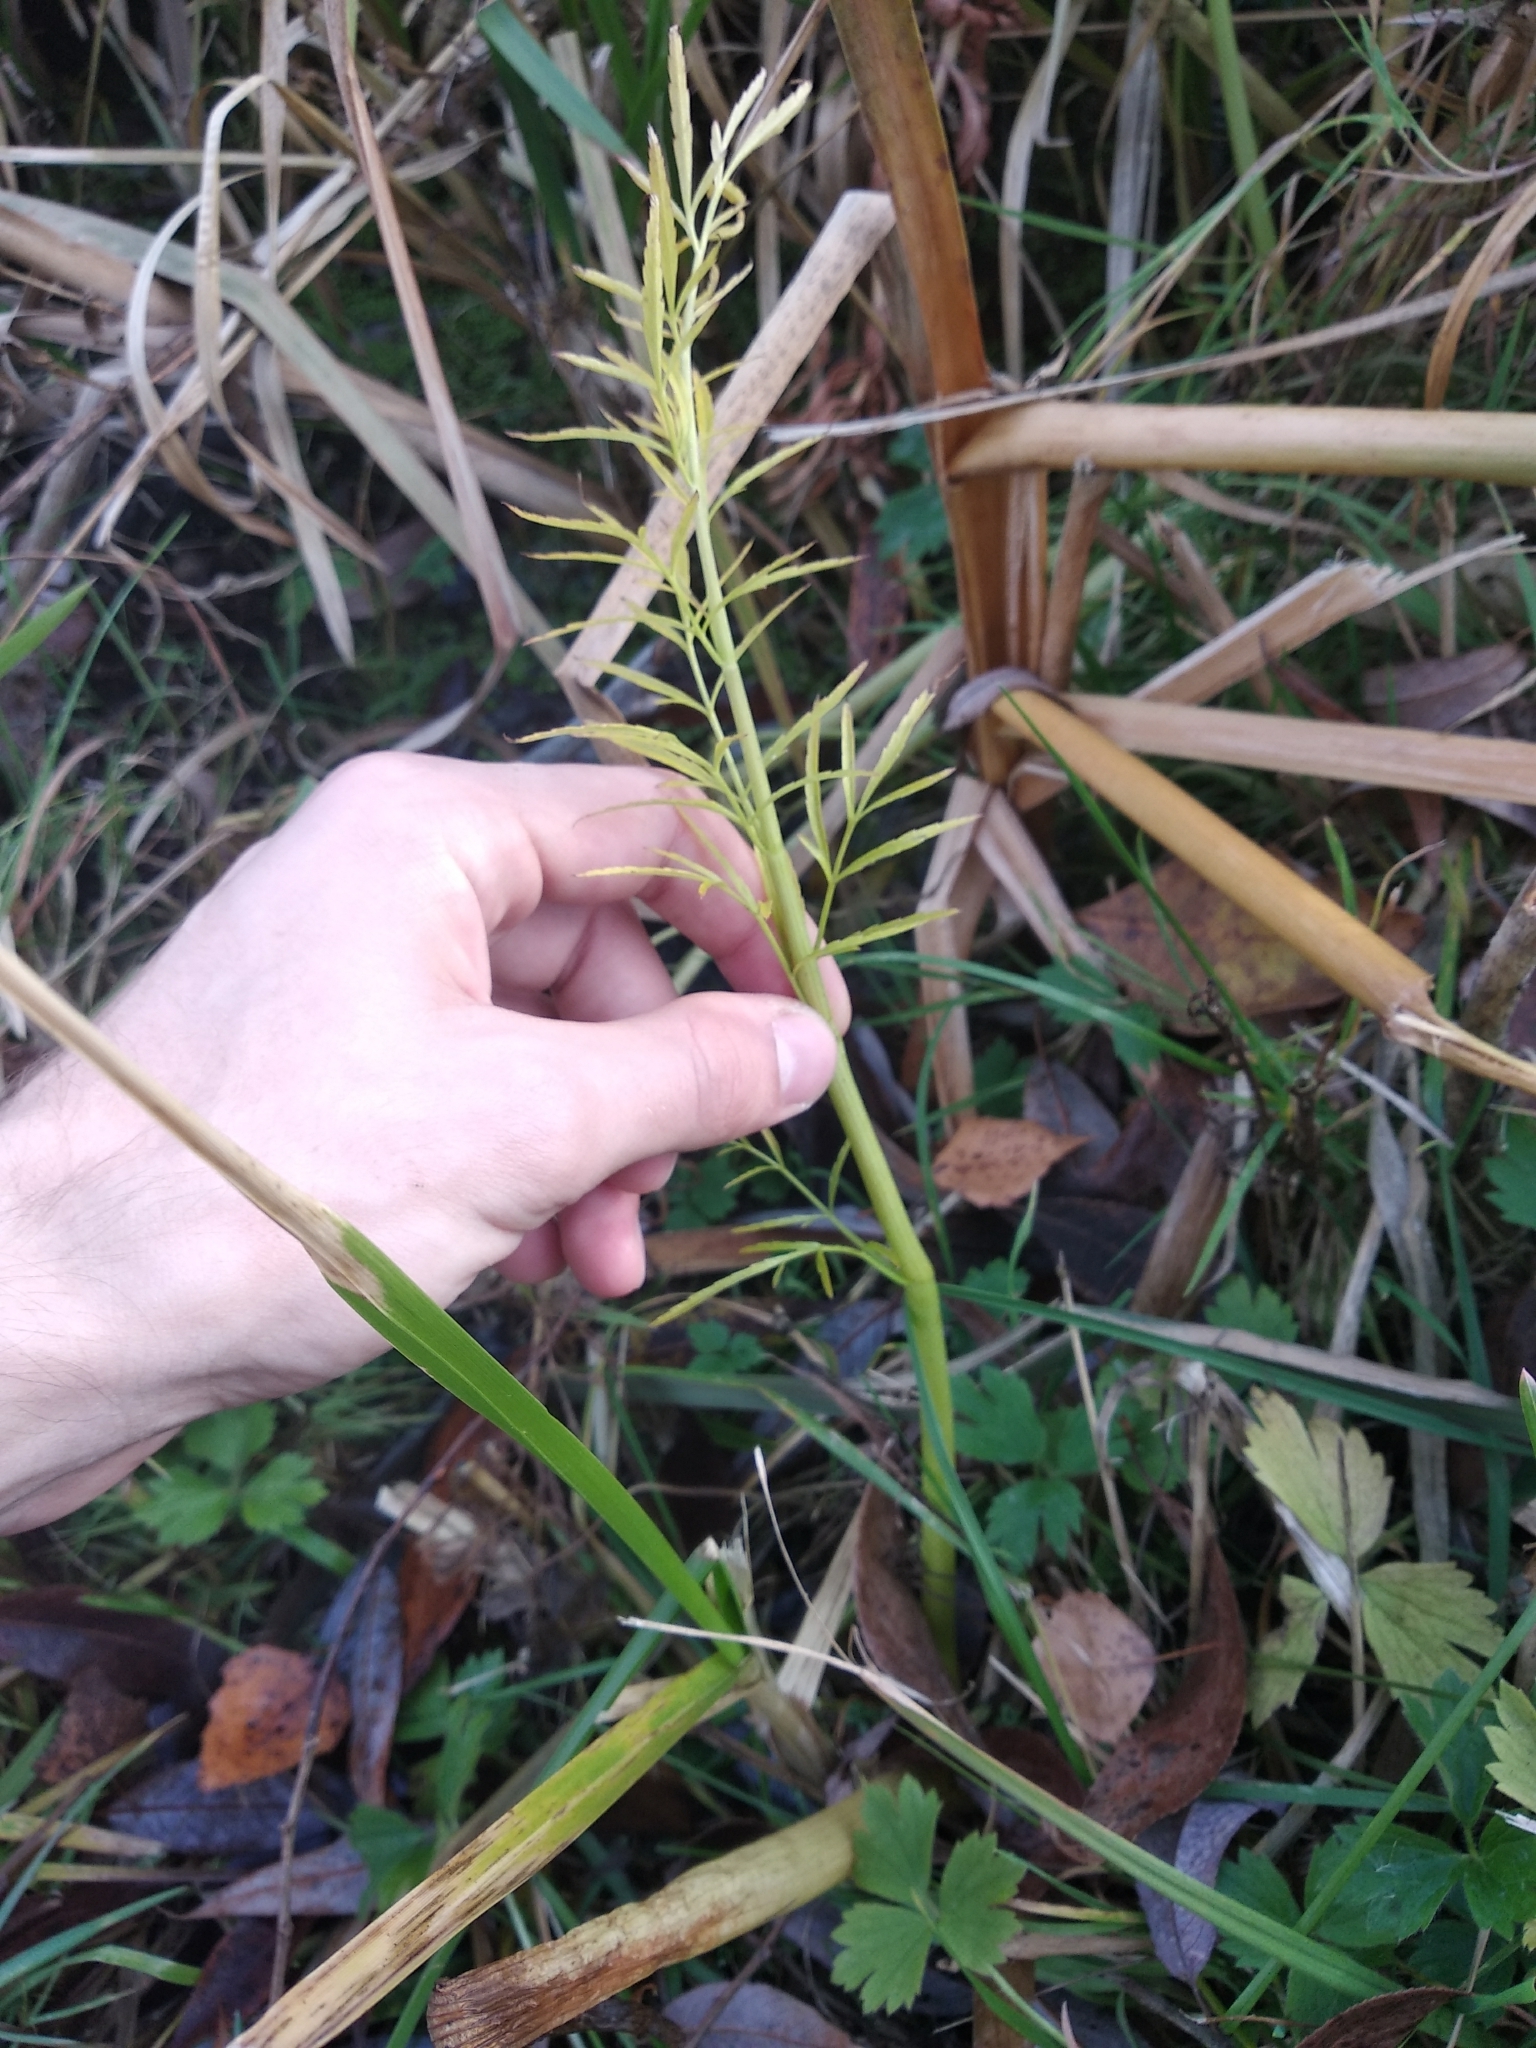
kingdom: Plantae
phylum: Tracheophyta
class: Magnoliopsida
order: Apiales
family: Apiaceae
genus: Cicuta
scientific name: Cicuta virosa
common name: Cowbane
